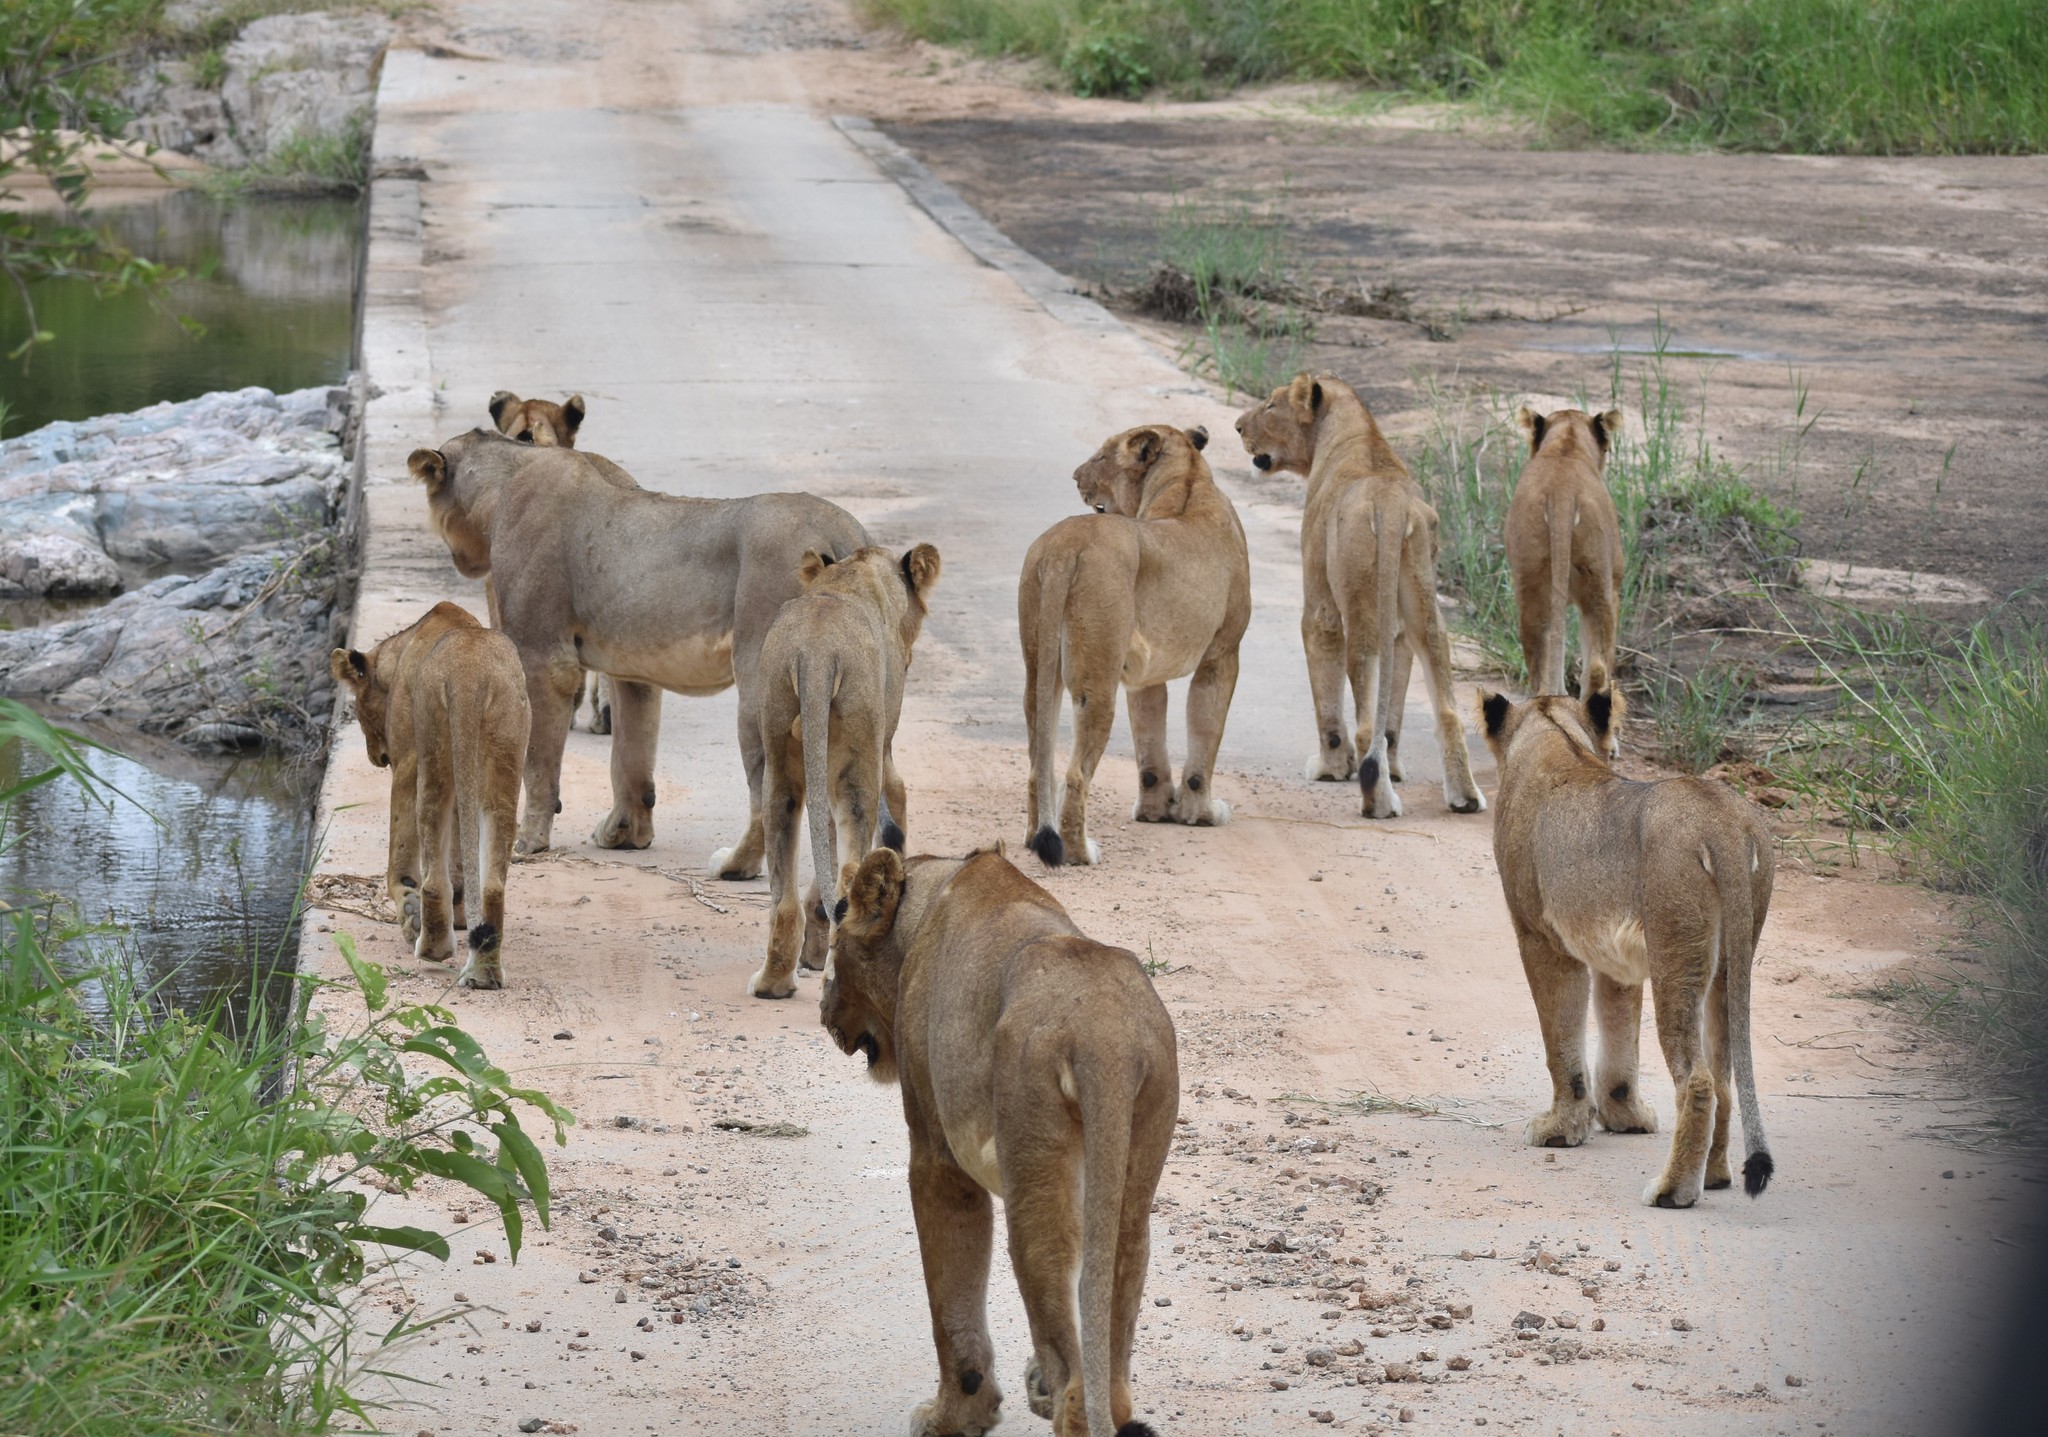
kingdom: Animalia
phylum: Chordata
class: Mammalia
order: Carnivora
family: Felidae
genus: Panthera
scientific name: Panthera leo
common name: Lion
